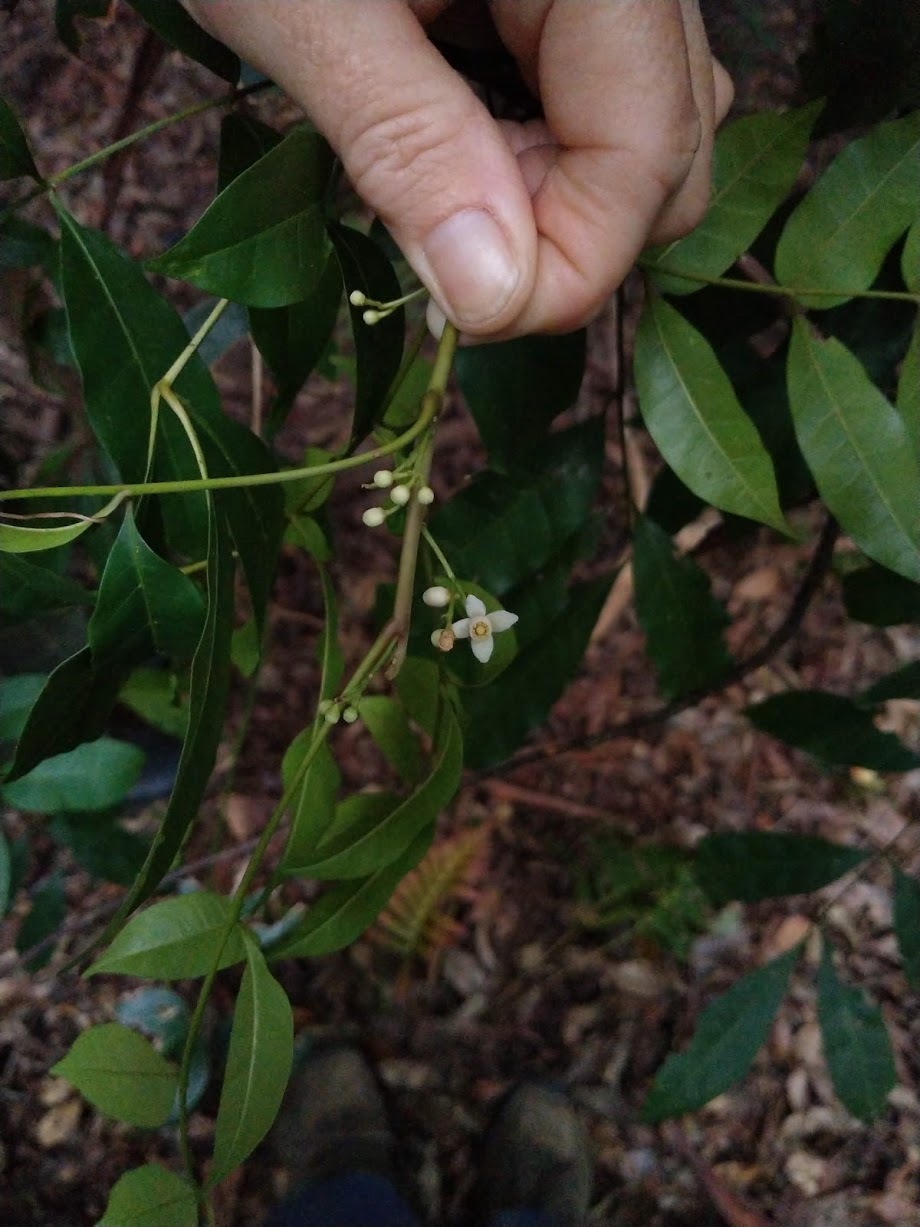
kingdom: Plantae
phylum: Tracheophyta
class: Magnoliopsida
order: Sapindales
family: Meliaceae
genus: Synoum
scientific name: Synoum glandulosum
